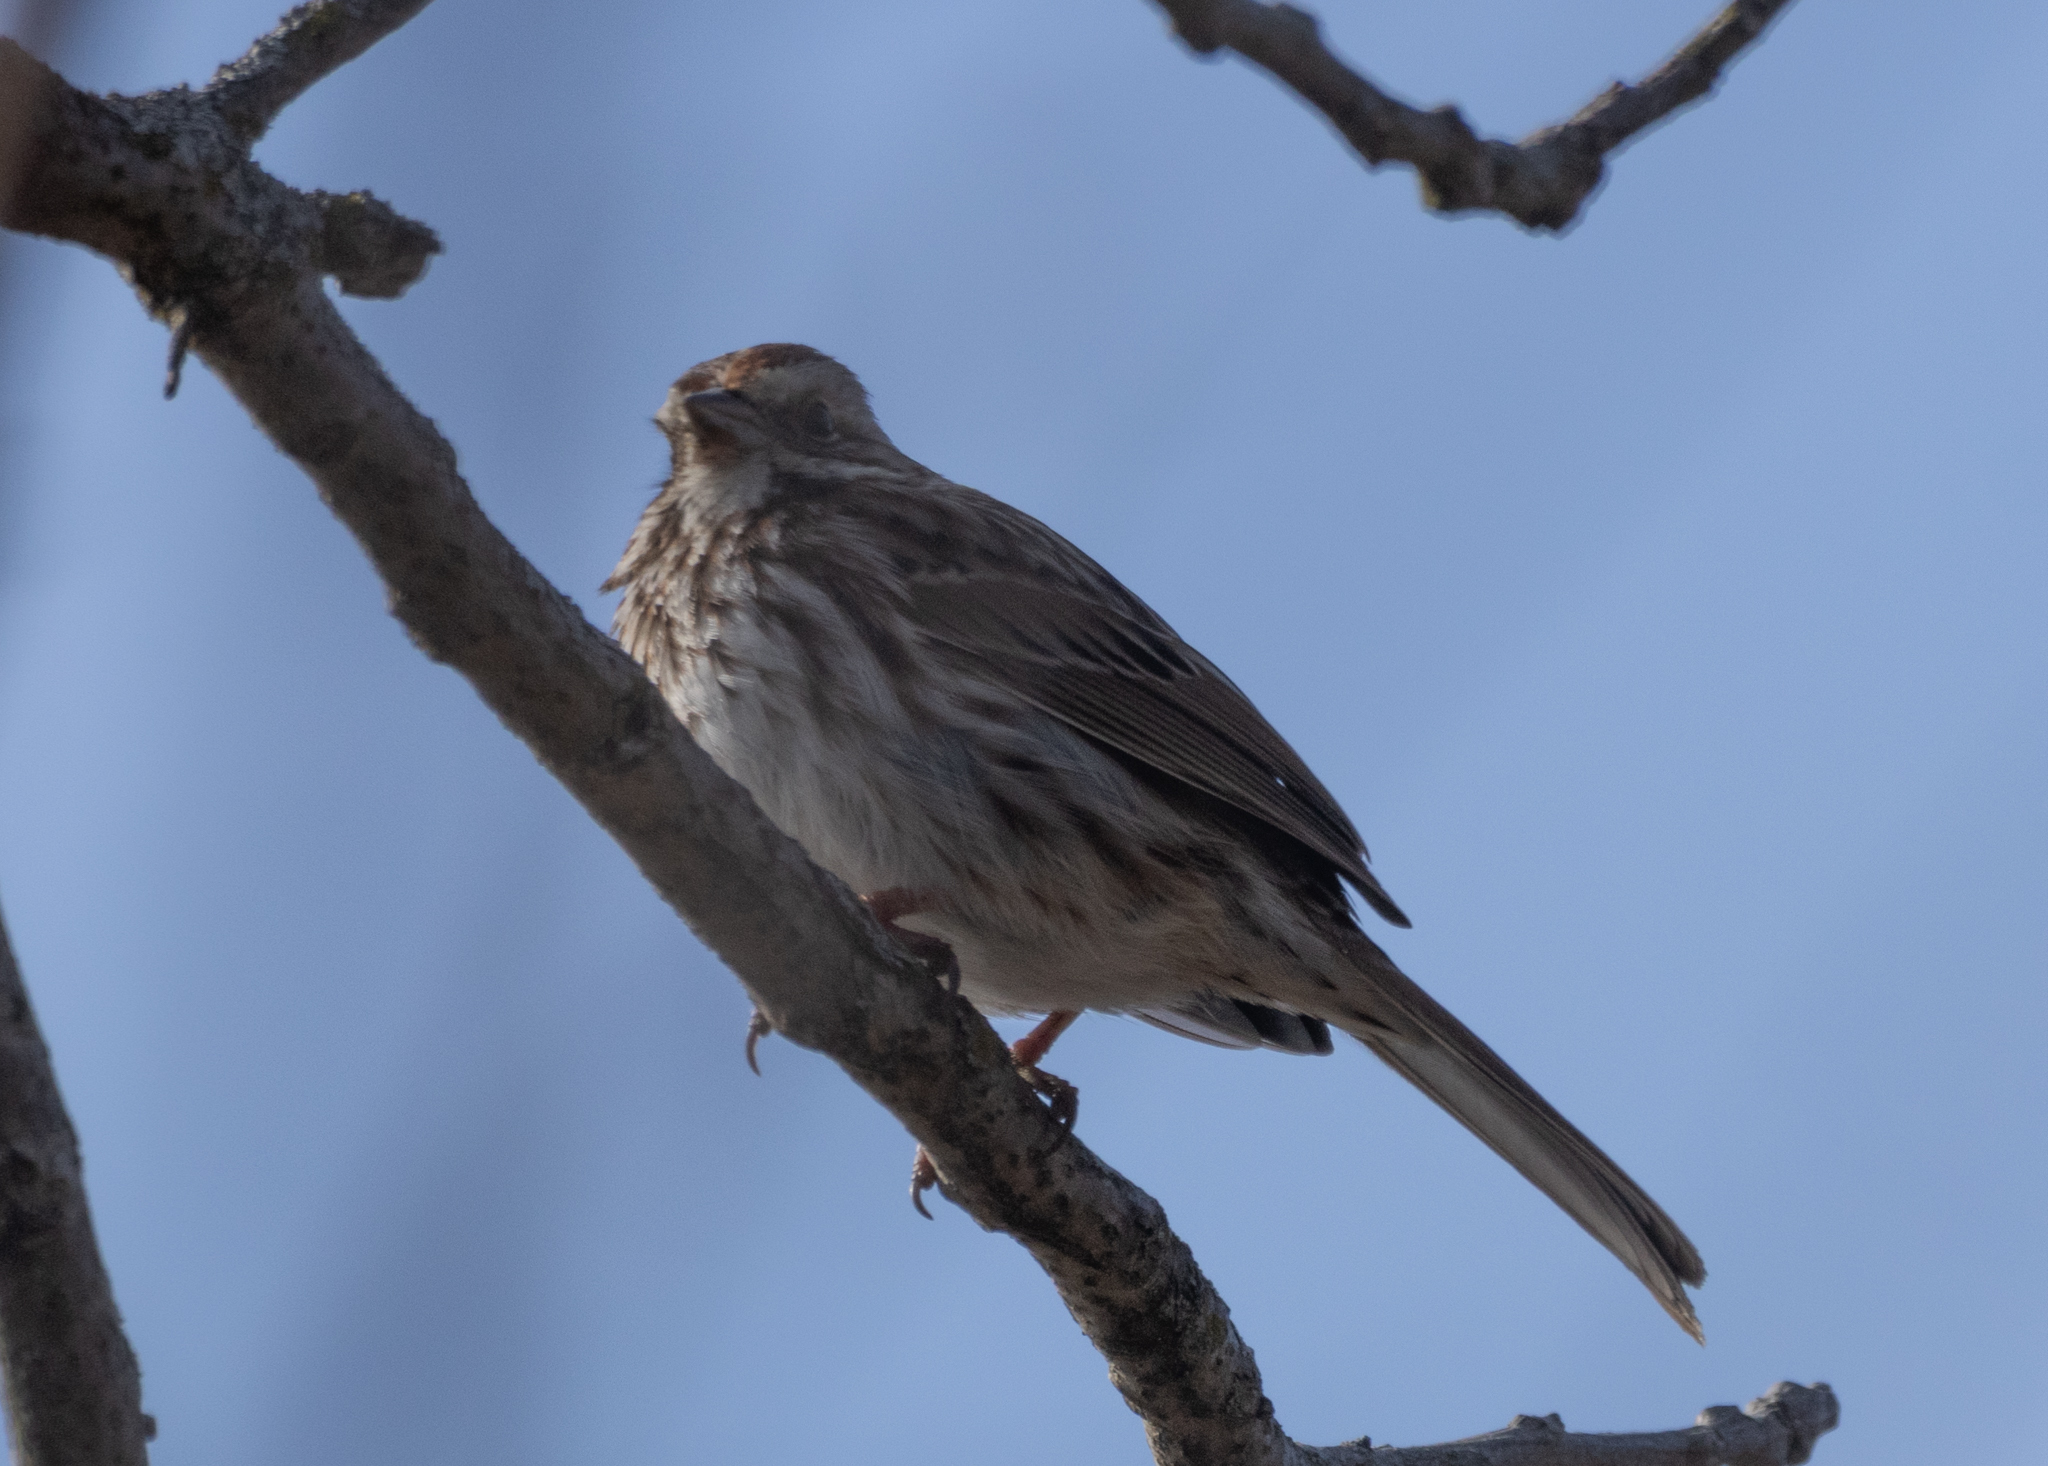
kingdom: Animalia
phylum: Chordata
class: Aves
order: Passeriformes
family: Passerellidae
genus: Melospiza
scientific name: Melospiza melodia
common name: Song sparrow
